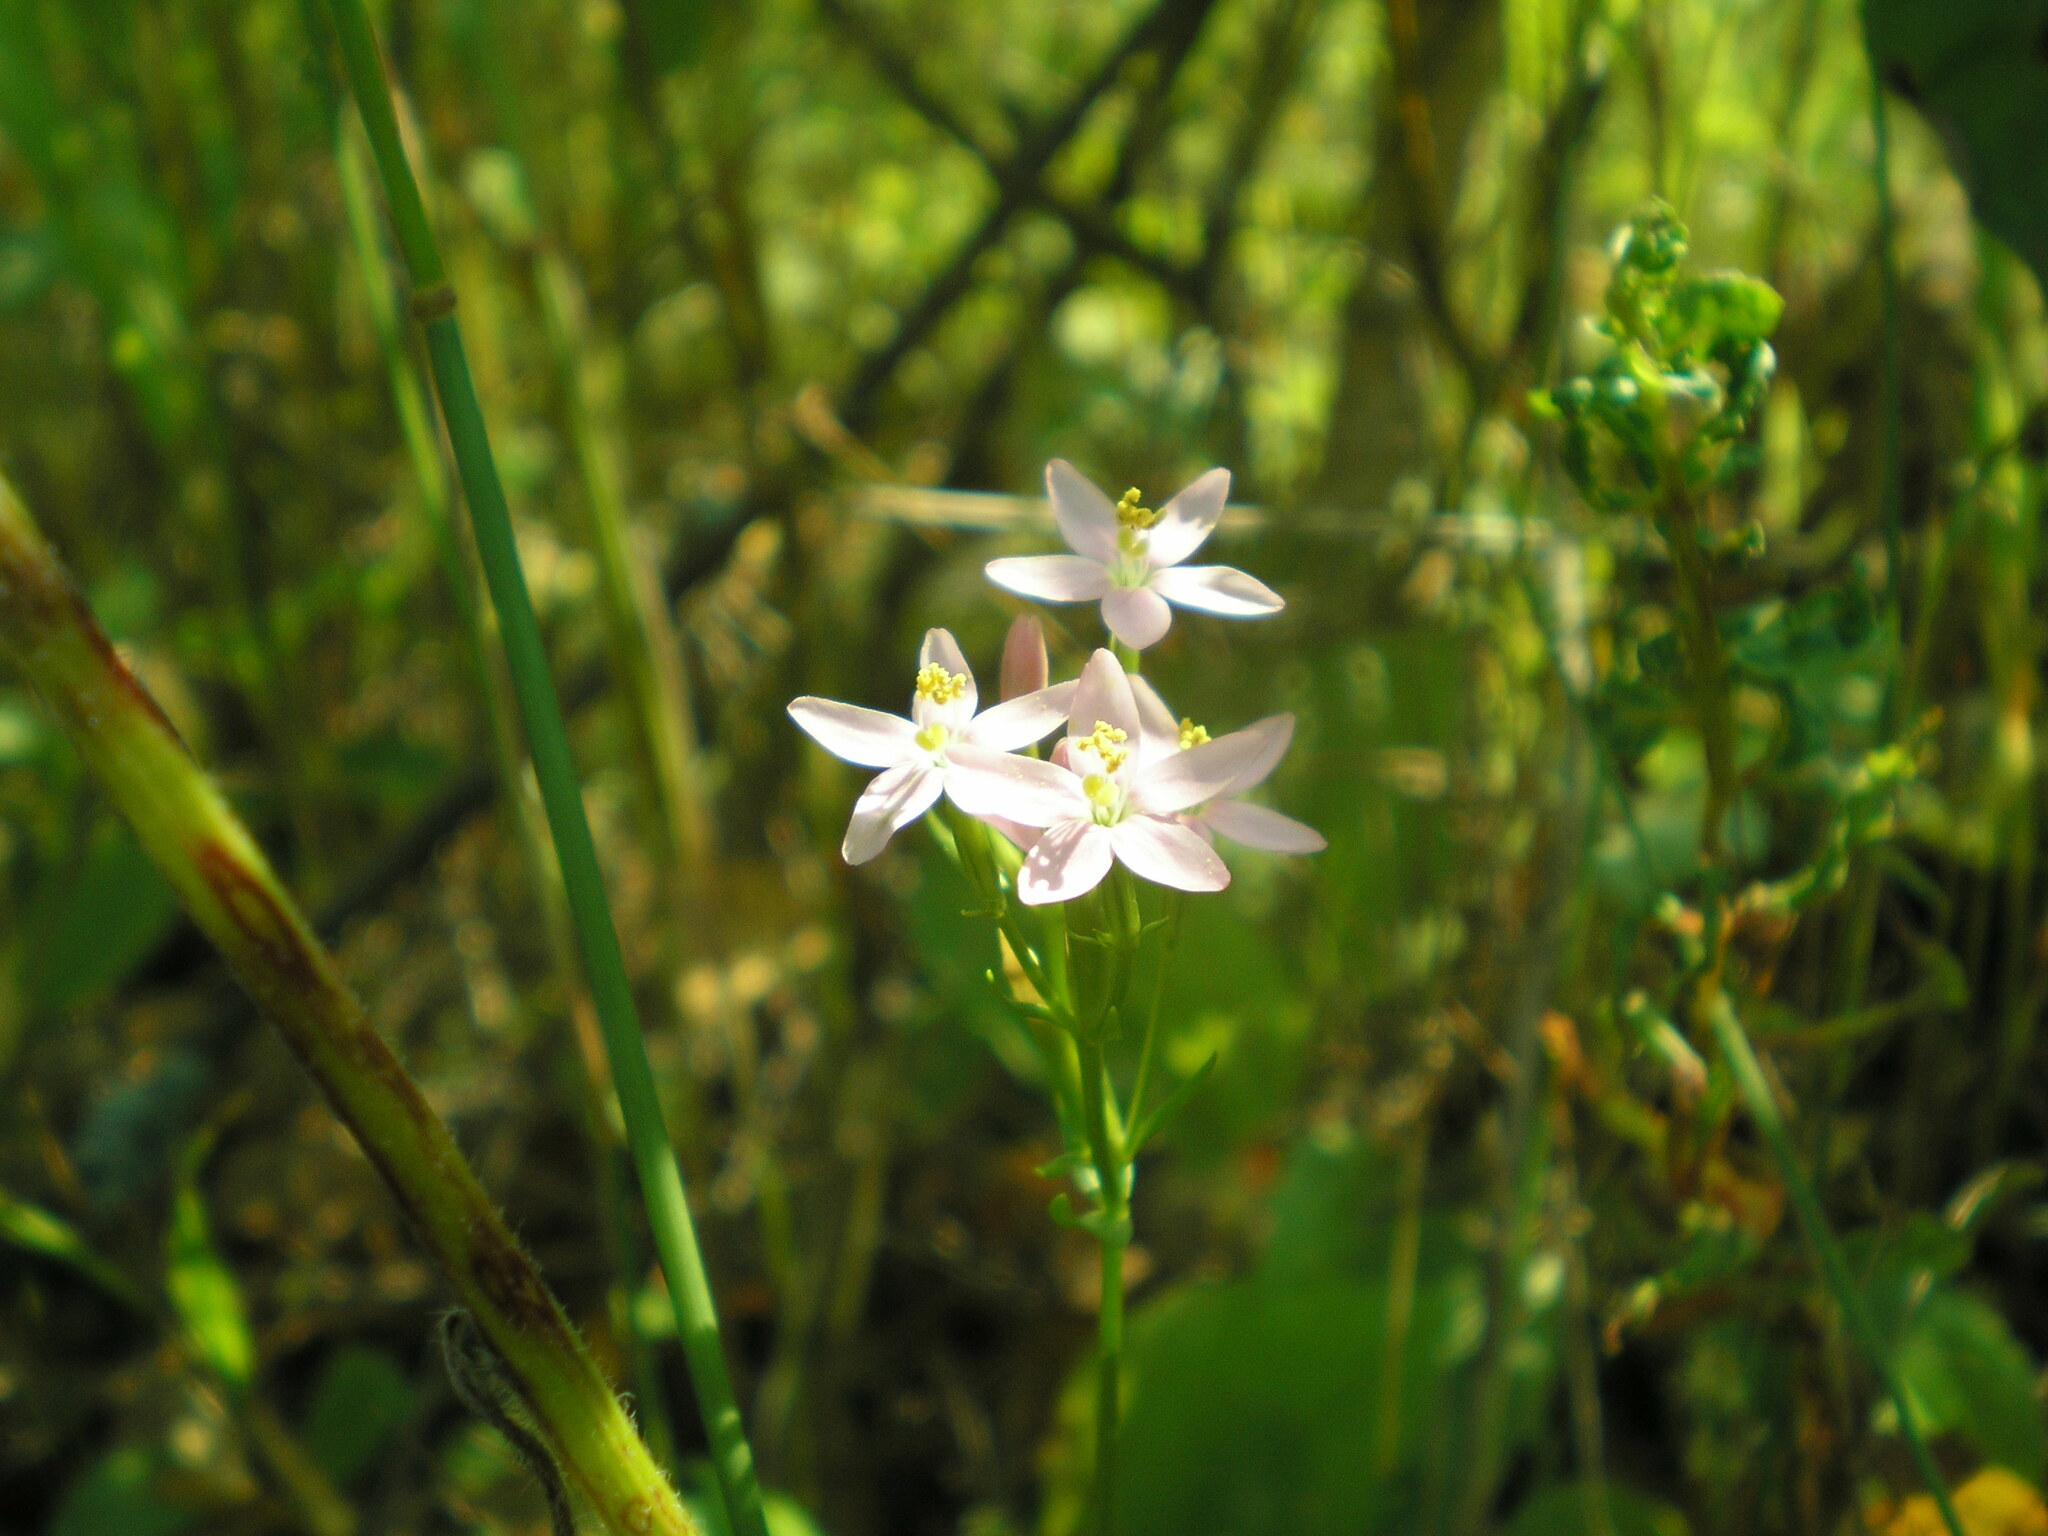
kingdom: Plantae
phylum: Tracheophyta
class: Magnoliopsida
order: Gentianales
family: Gentianaceae
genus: Centaurium
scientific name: Centaurium erythraea
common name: Common centaury
